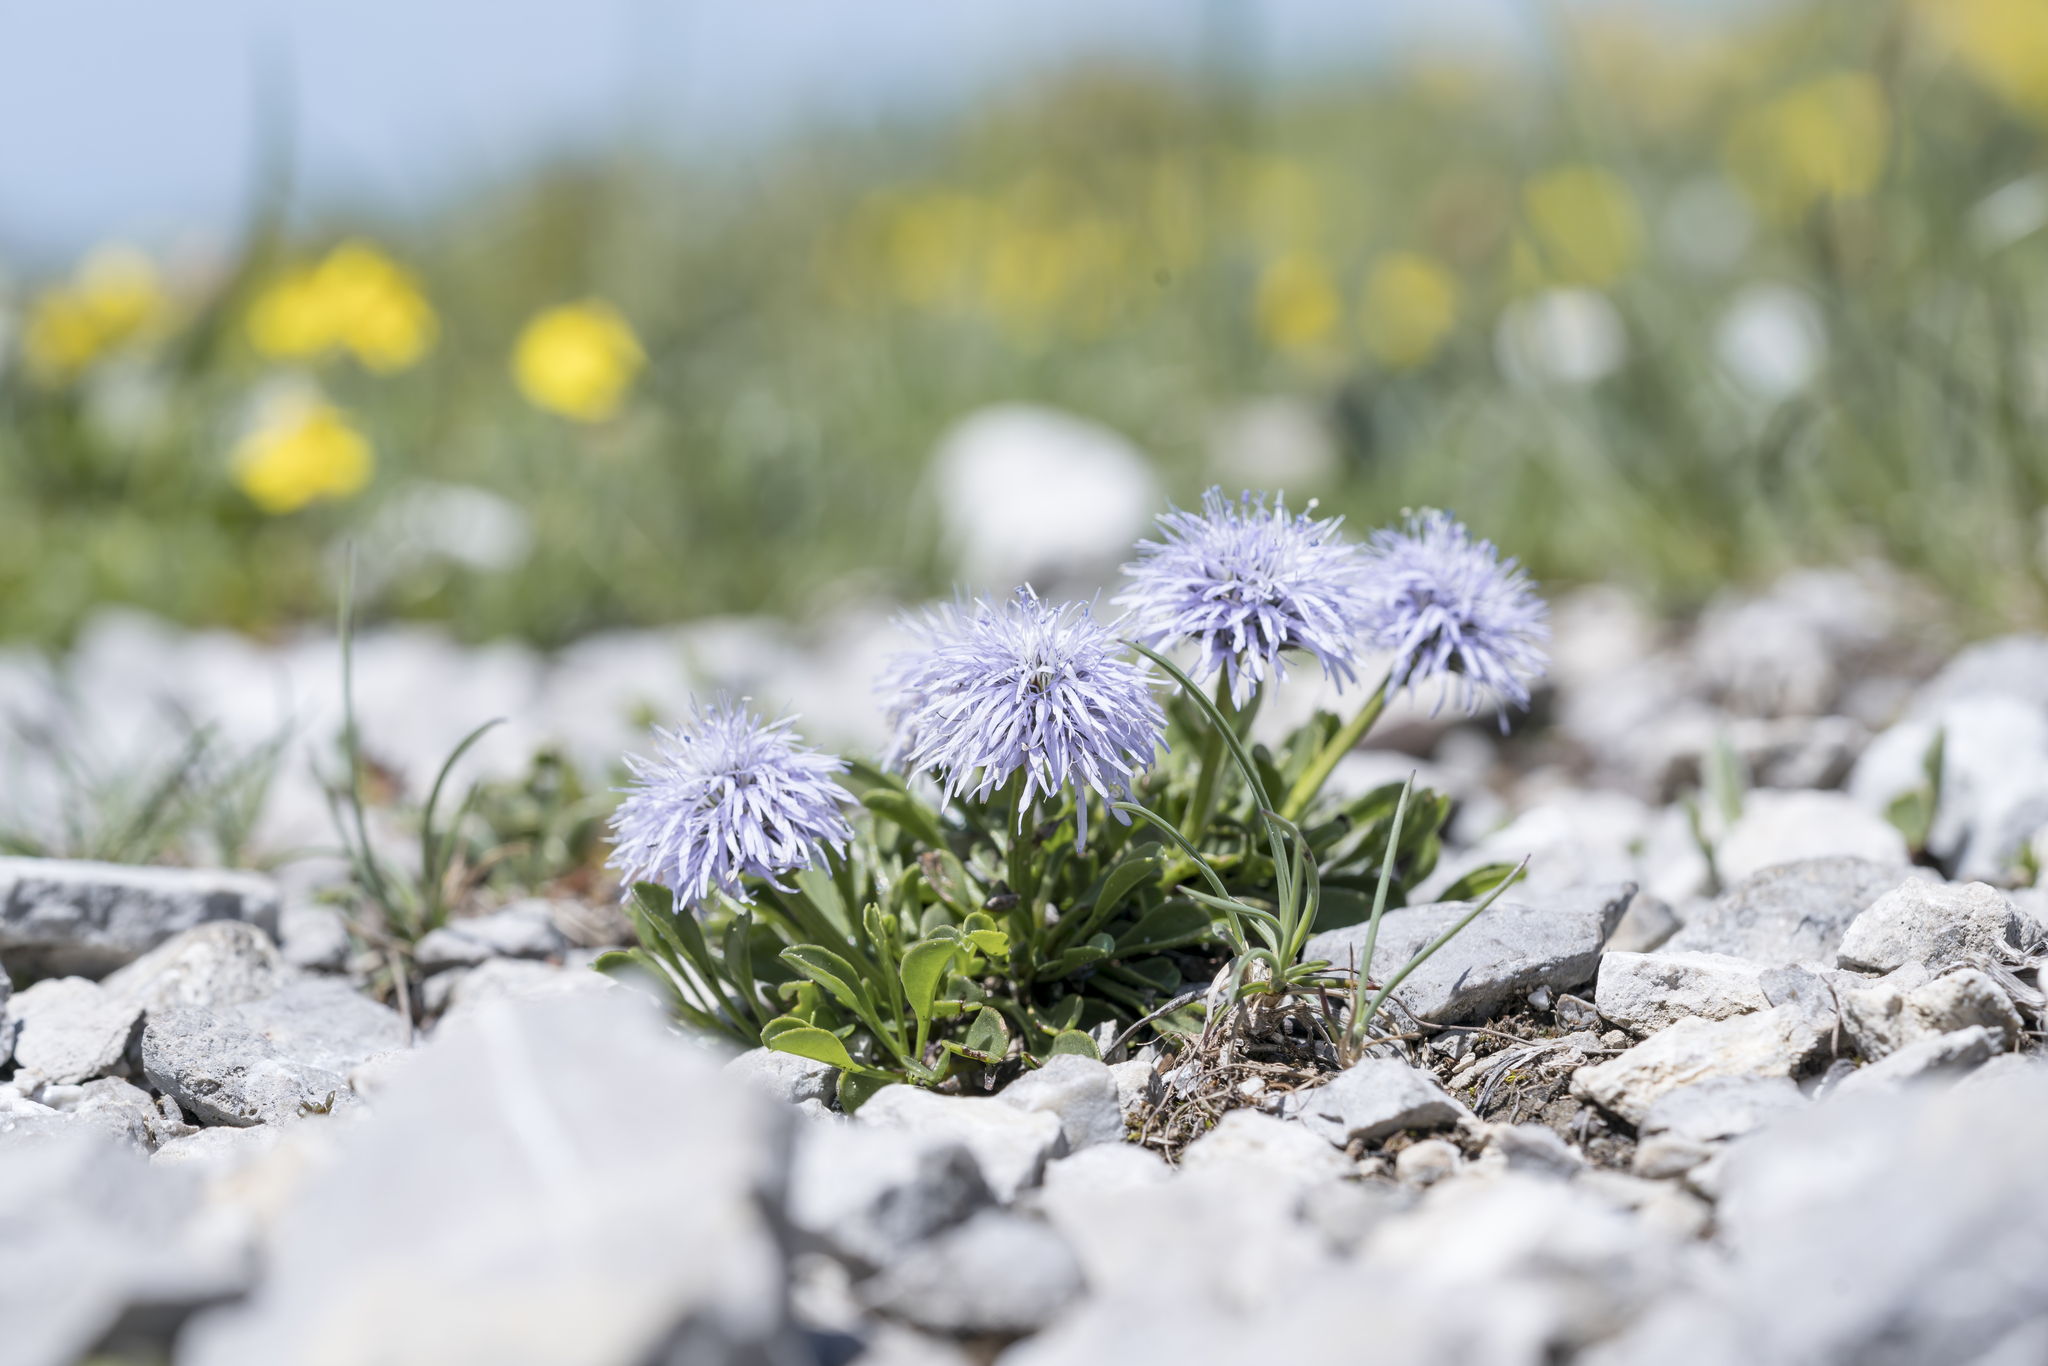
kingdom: Plantae
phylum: Tracheophyta
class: Magnoliopsida
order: Lamiales
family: Plantaginaceae
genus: Globularia
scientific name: Globularia cordifolia
